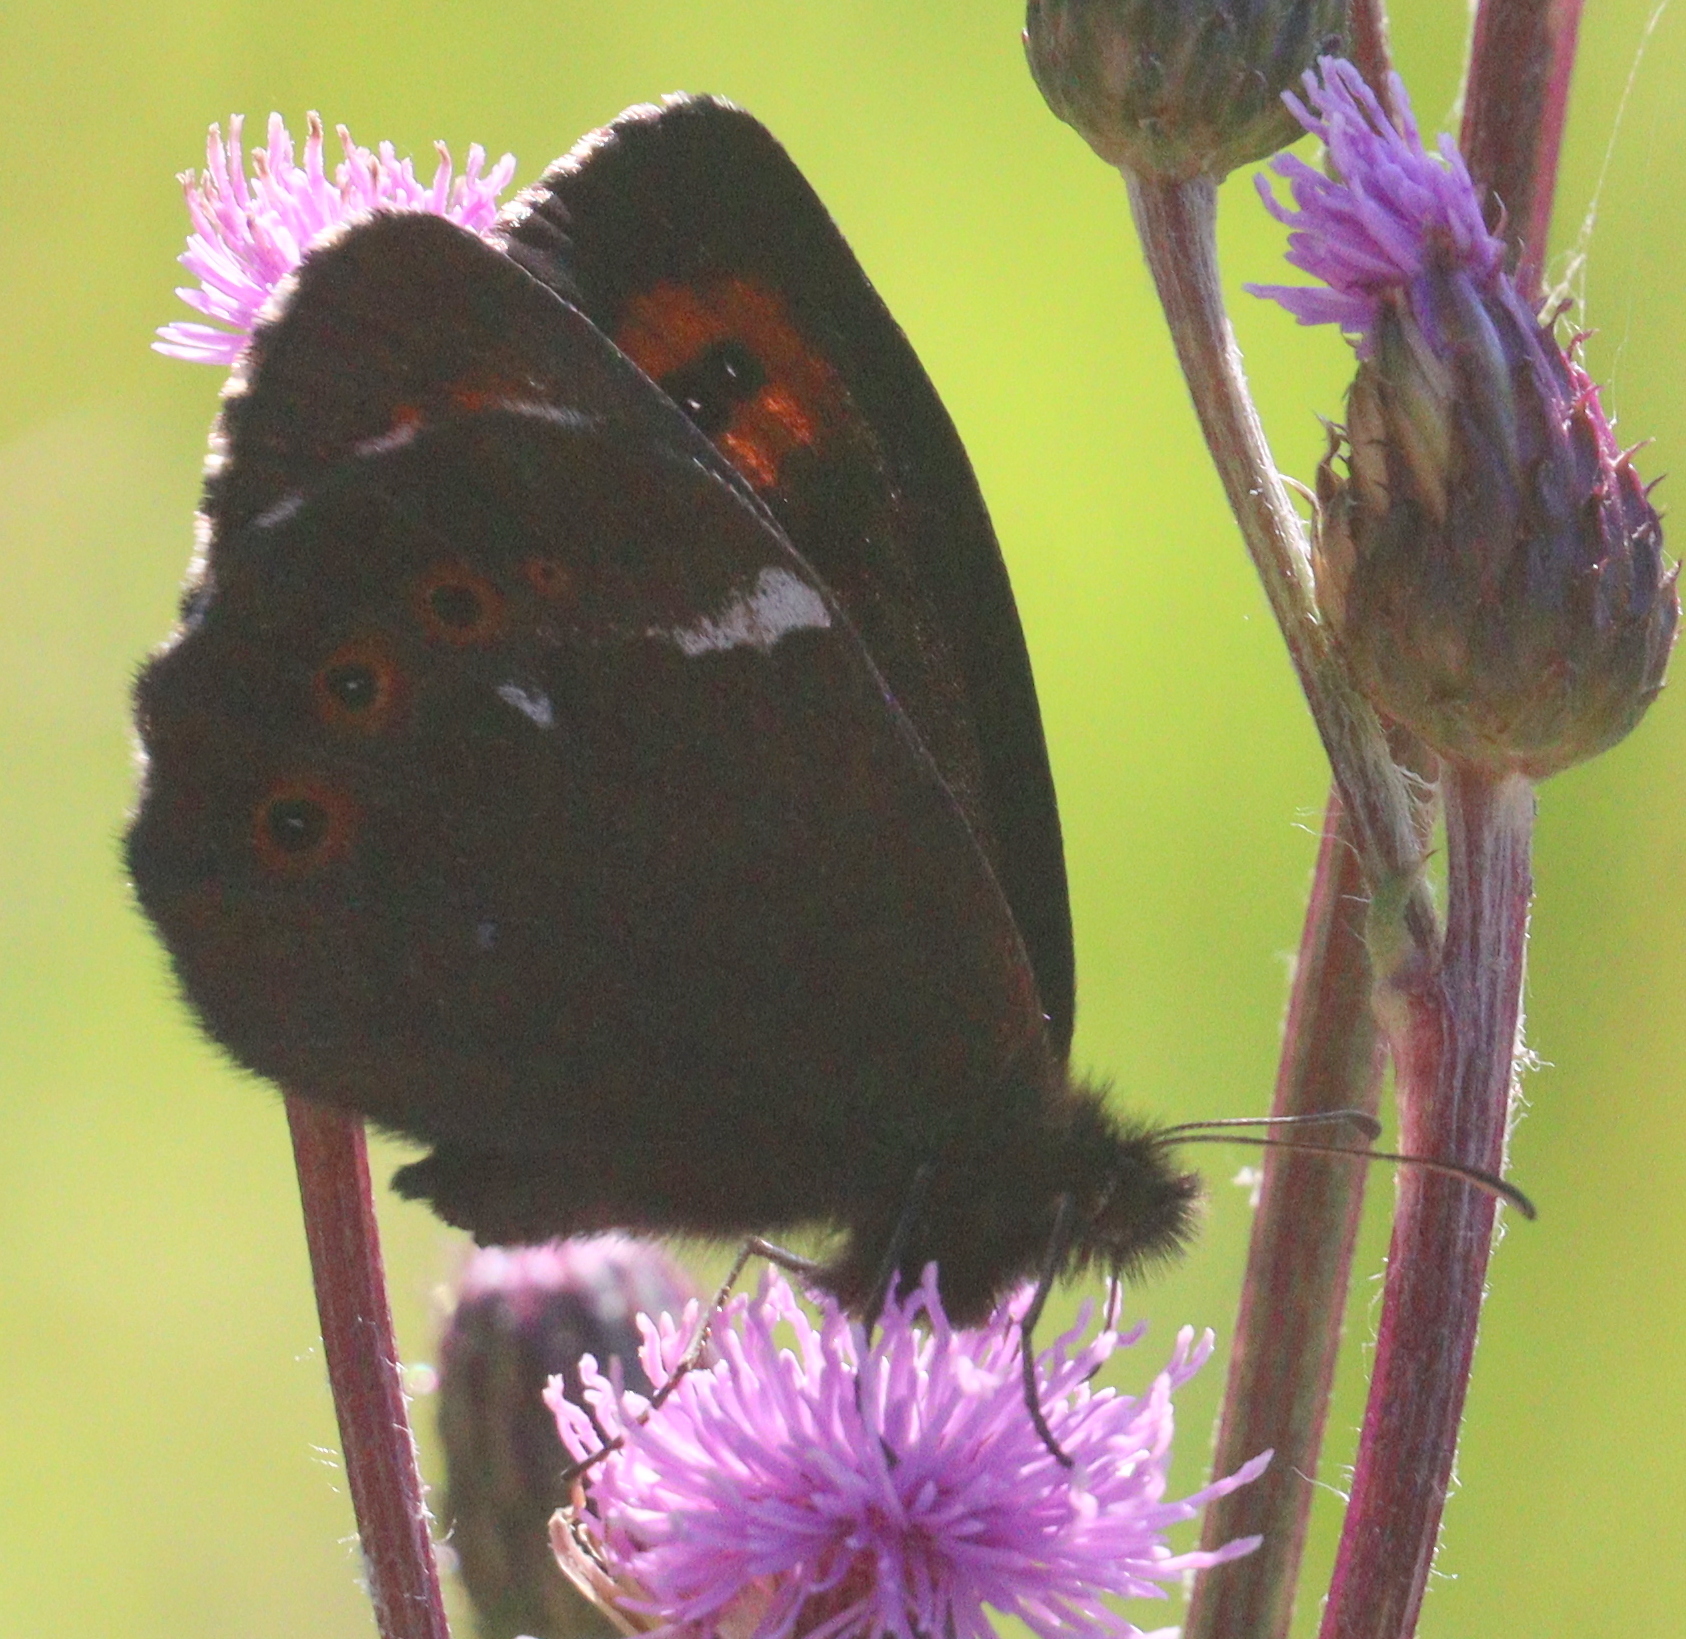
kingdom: Animalia
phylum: Arthropoda
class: Insecta
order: Lepidoptera
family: Nymphalidae
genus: Erebia
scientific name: Erebia ligea
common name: Arran brown
